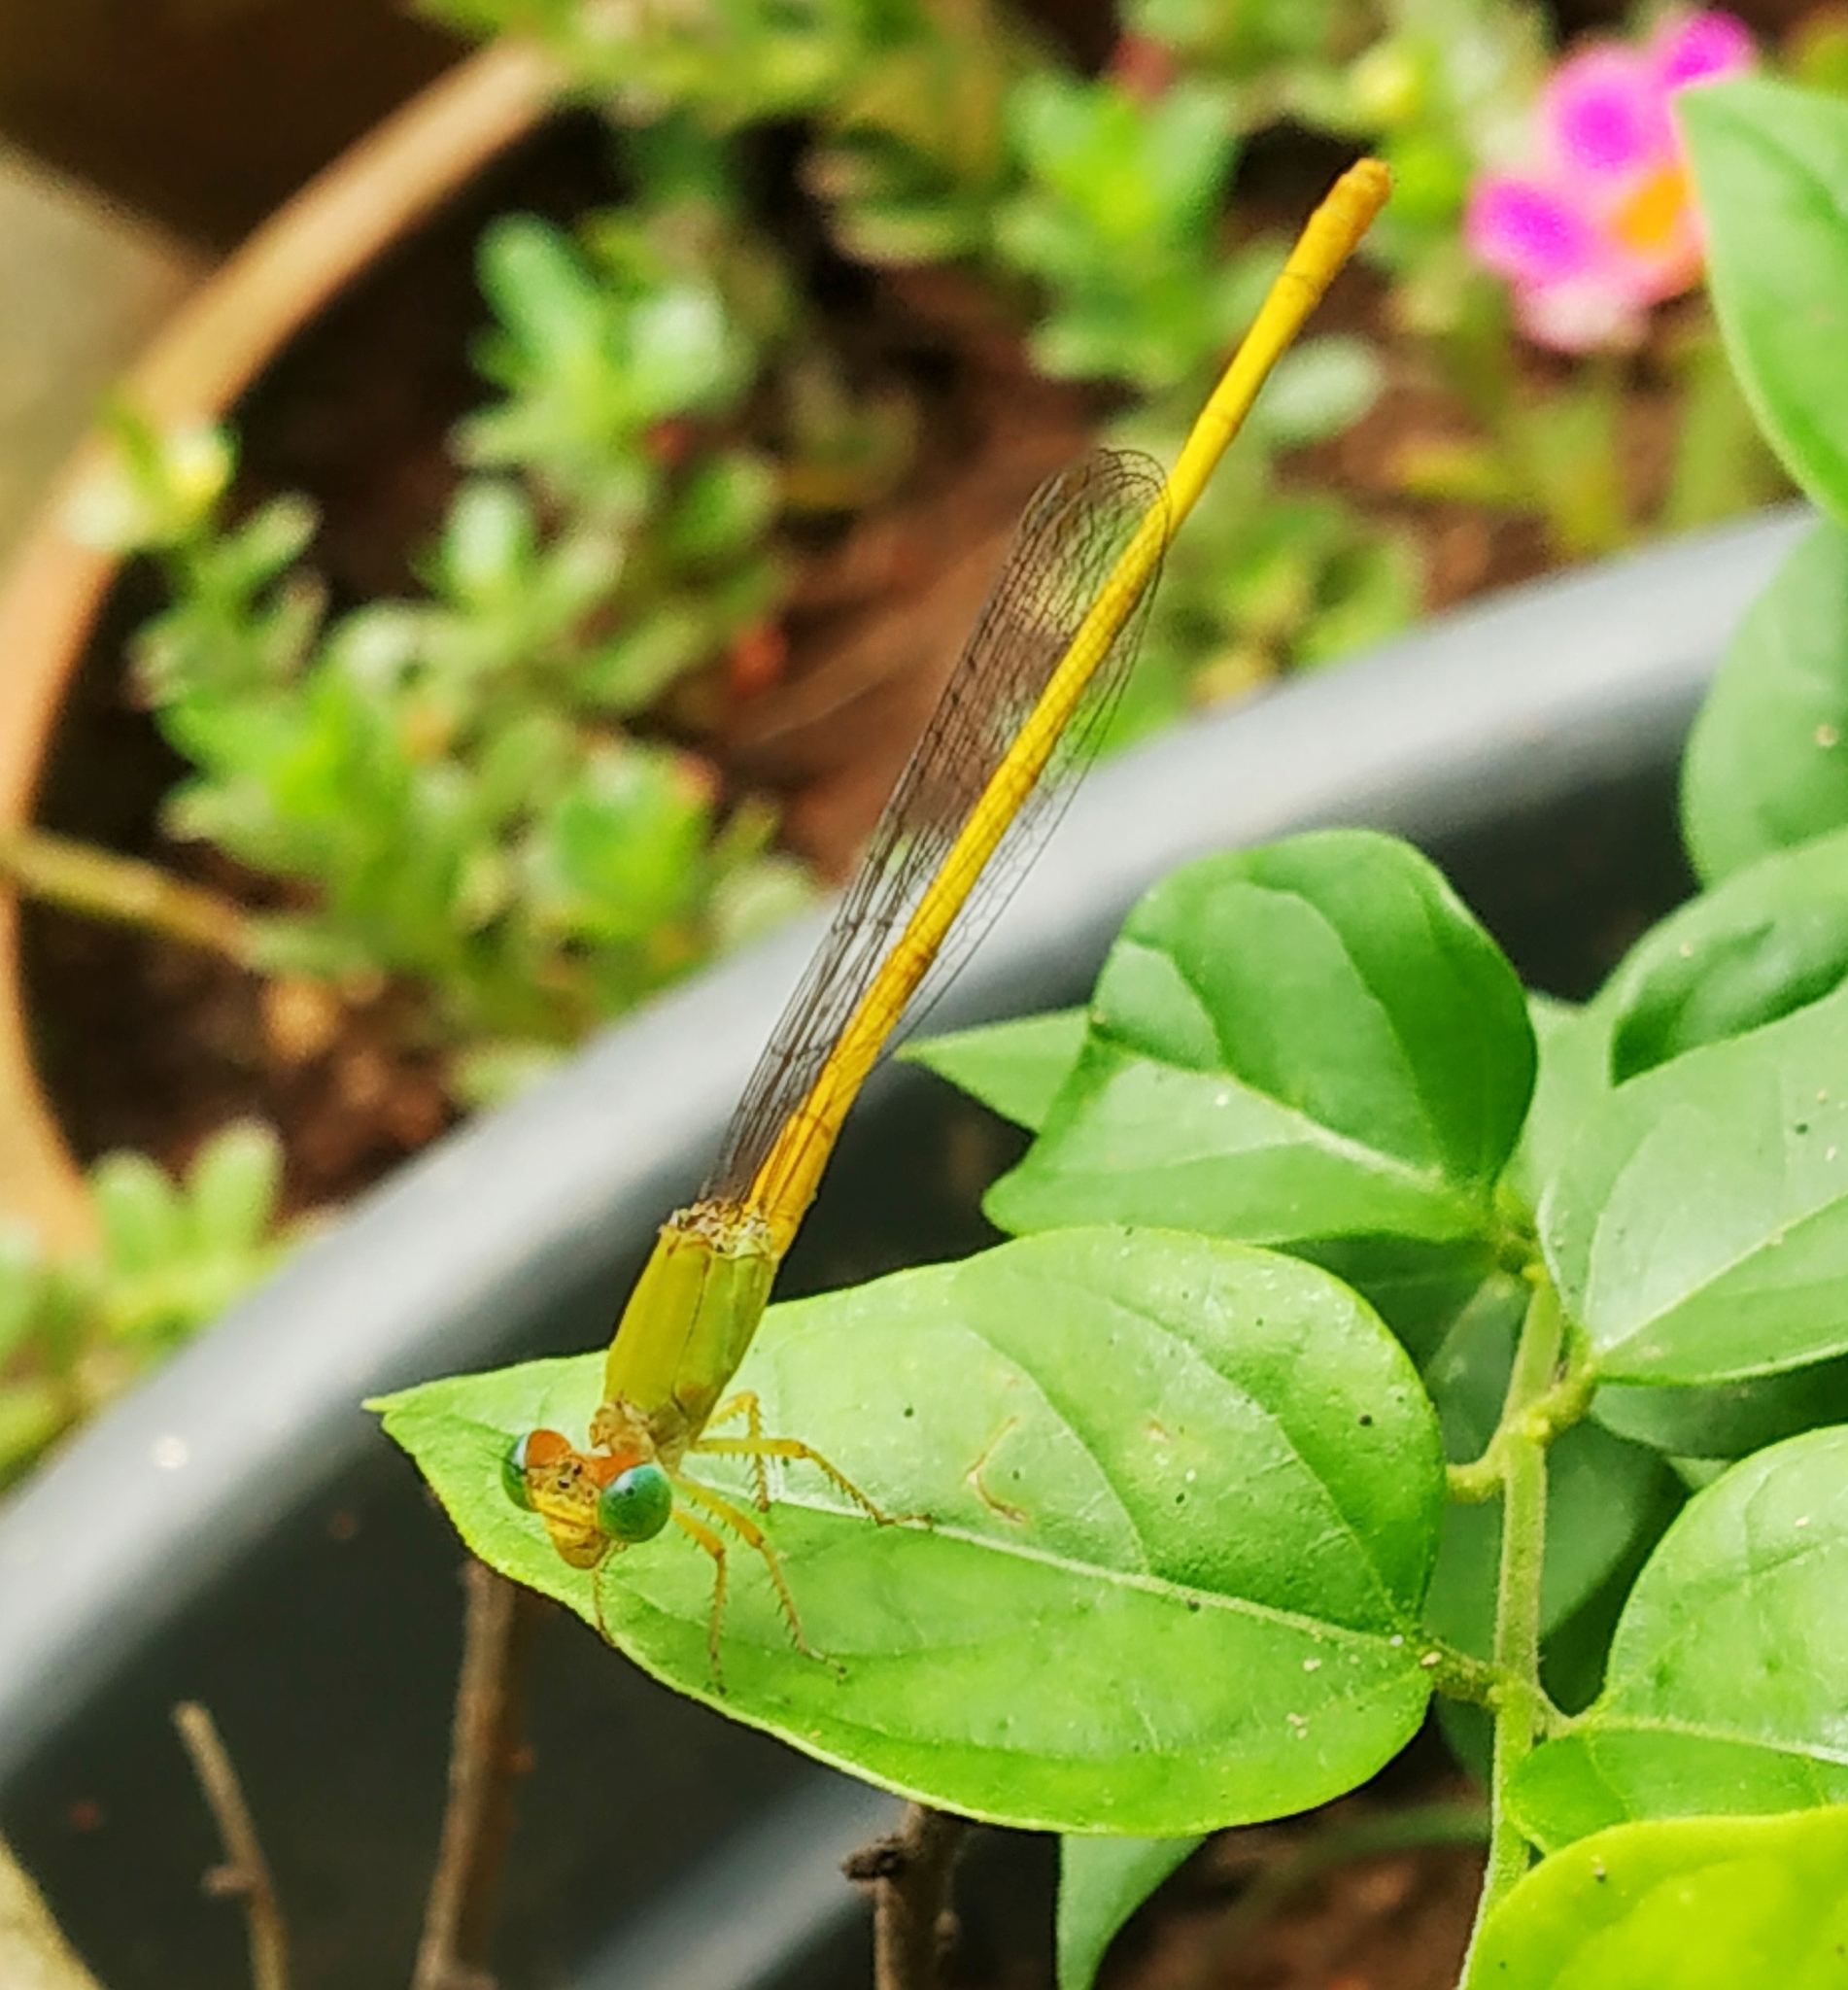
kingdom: Animalia
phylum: Arthropoda
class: Insecta
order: Odonata
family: Coenagrionidae
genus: Ceriagrion
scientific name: Ceriagrion coromandelianum
